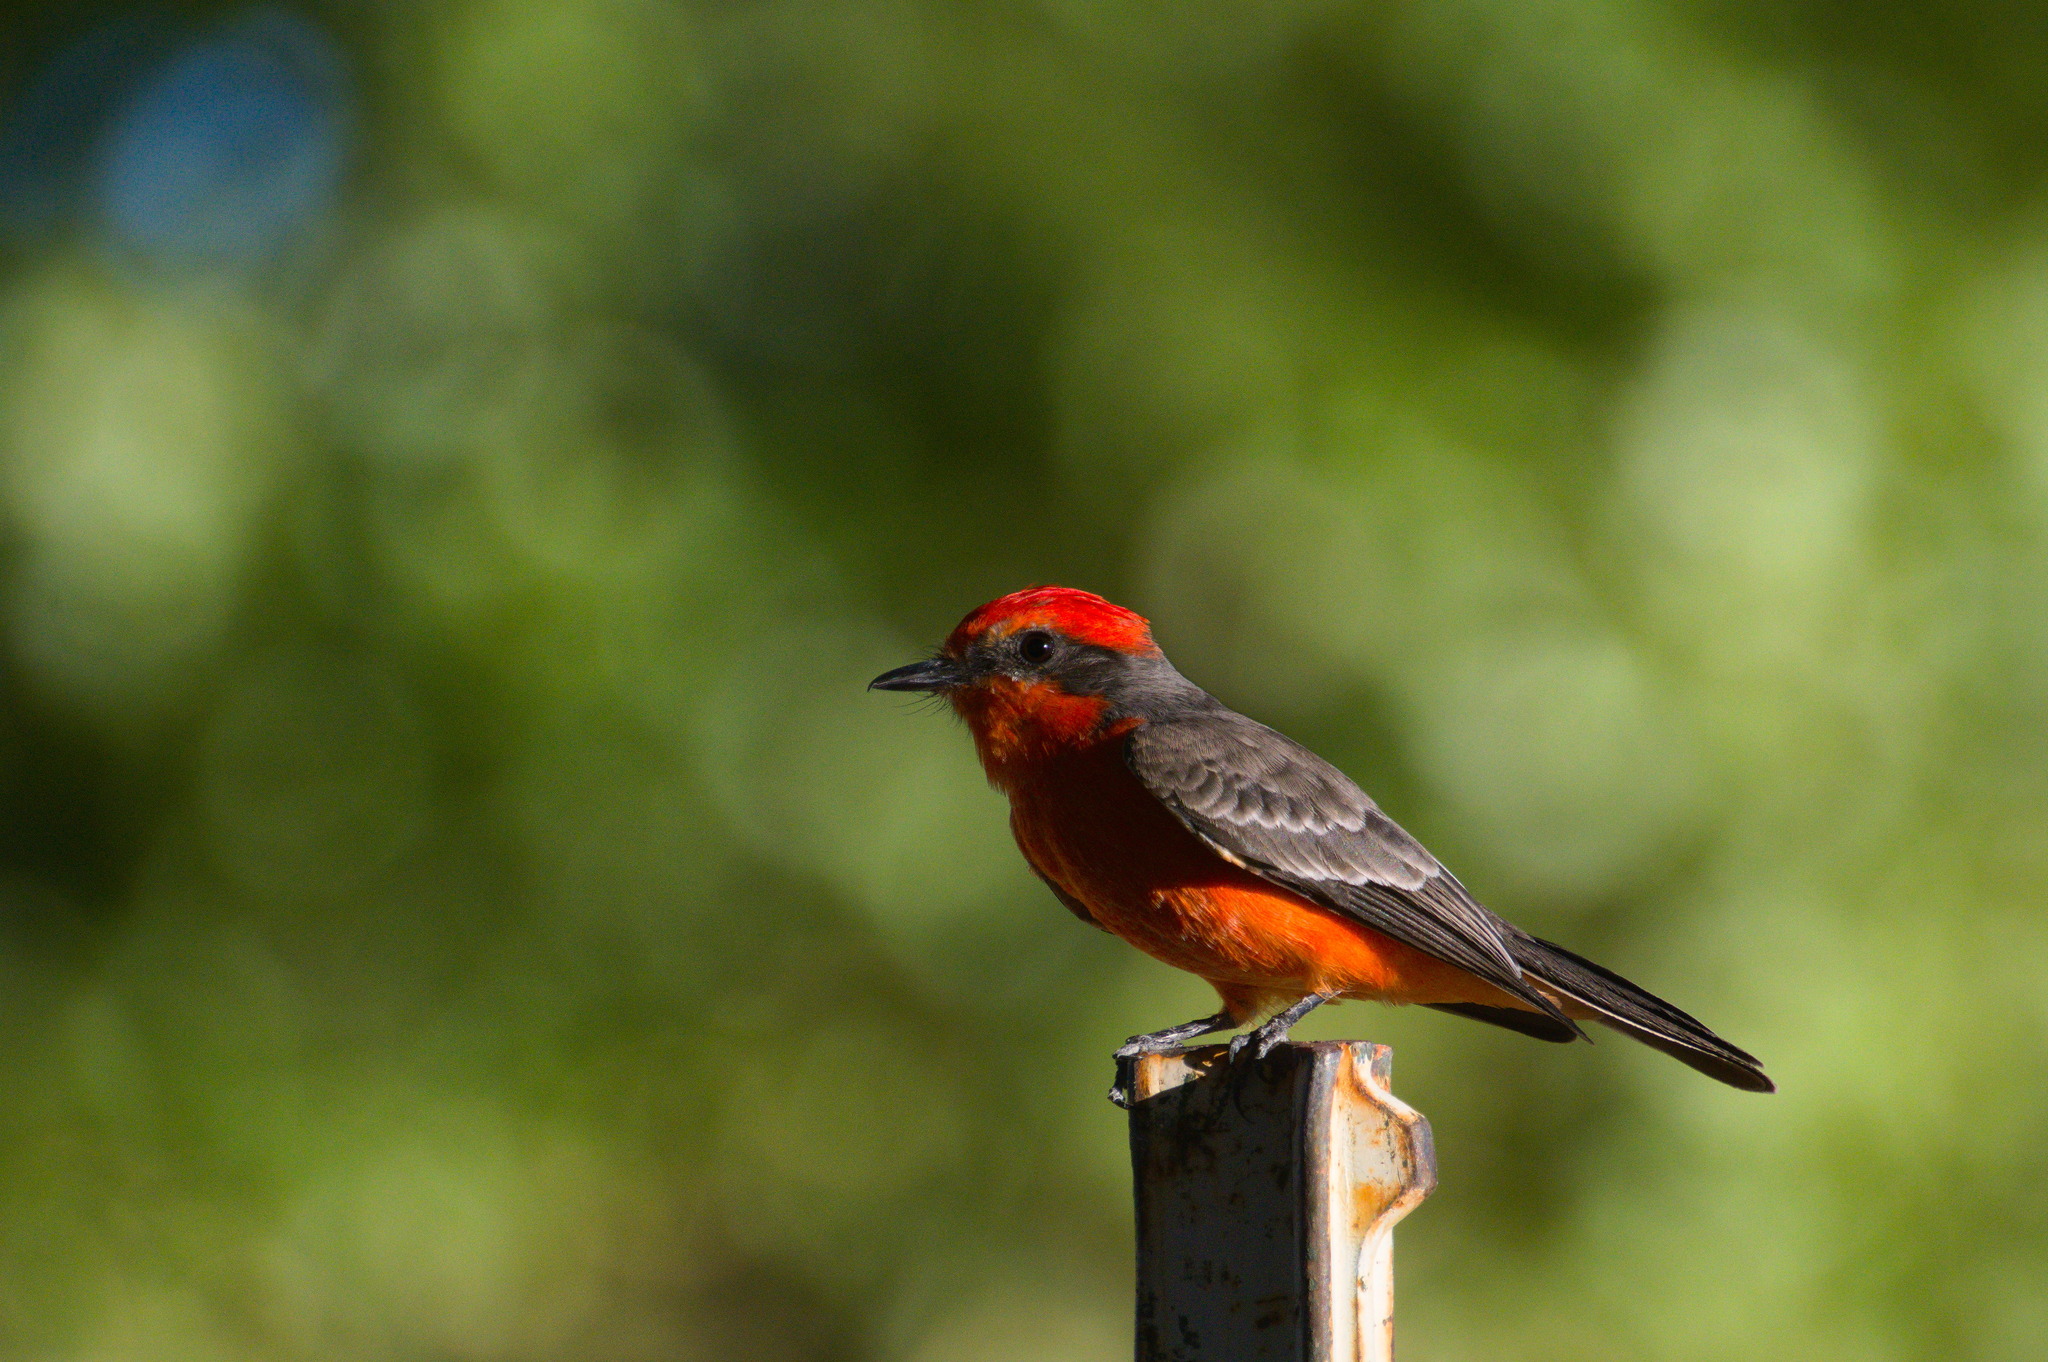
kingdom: Animalia
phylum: Chordata
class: Aves
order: Passeriformes
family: Tyrannidae
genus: Pyrocephalus
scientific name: Pyrocephalus rubinus
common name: Vermilion flycatcher
